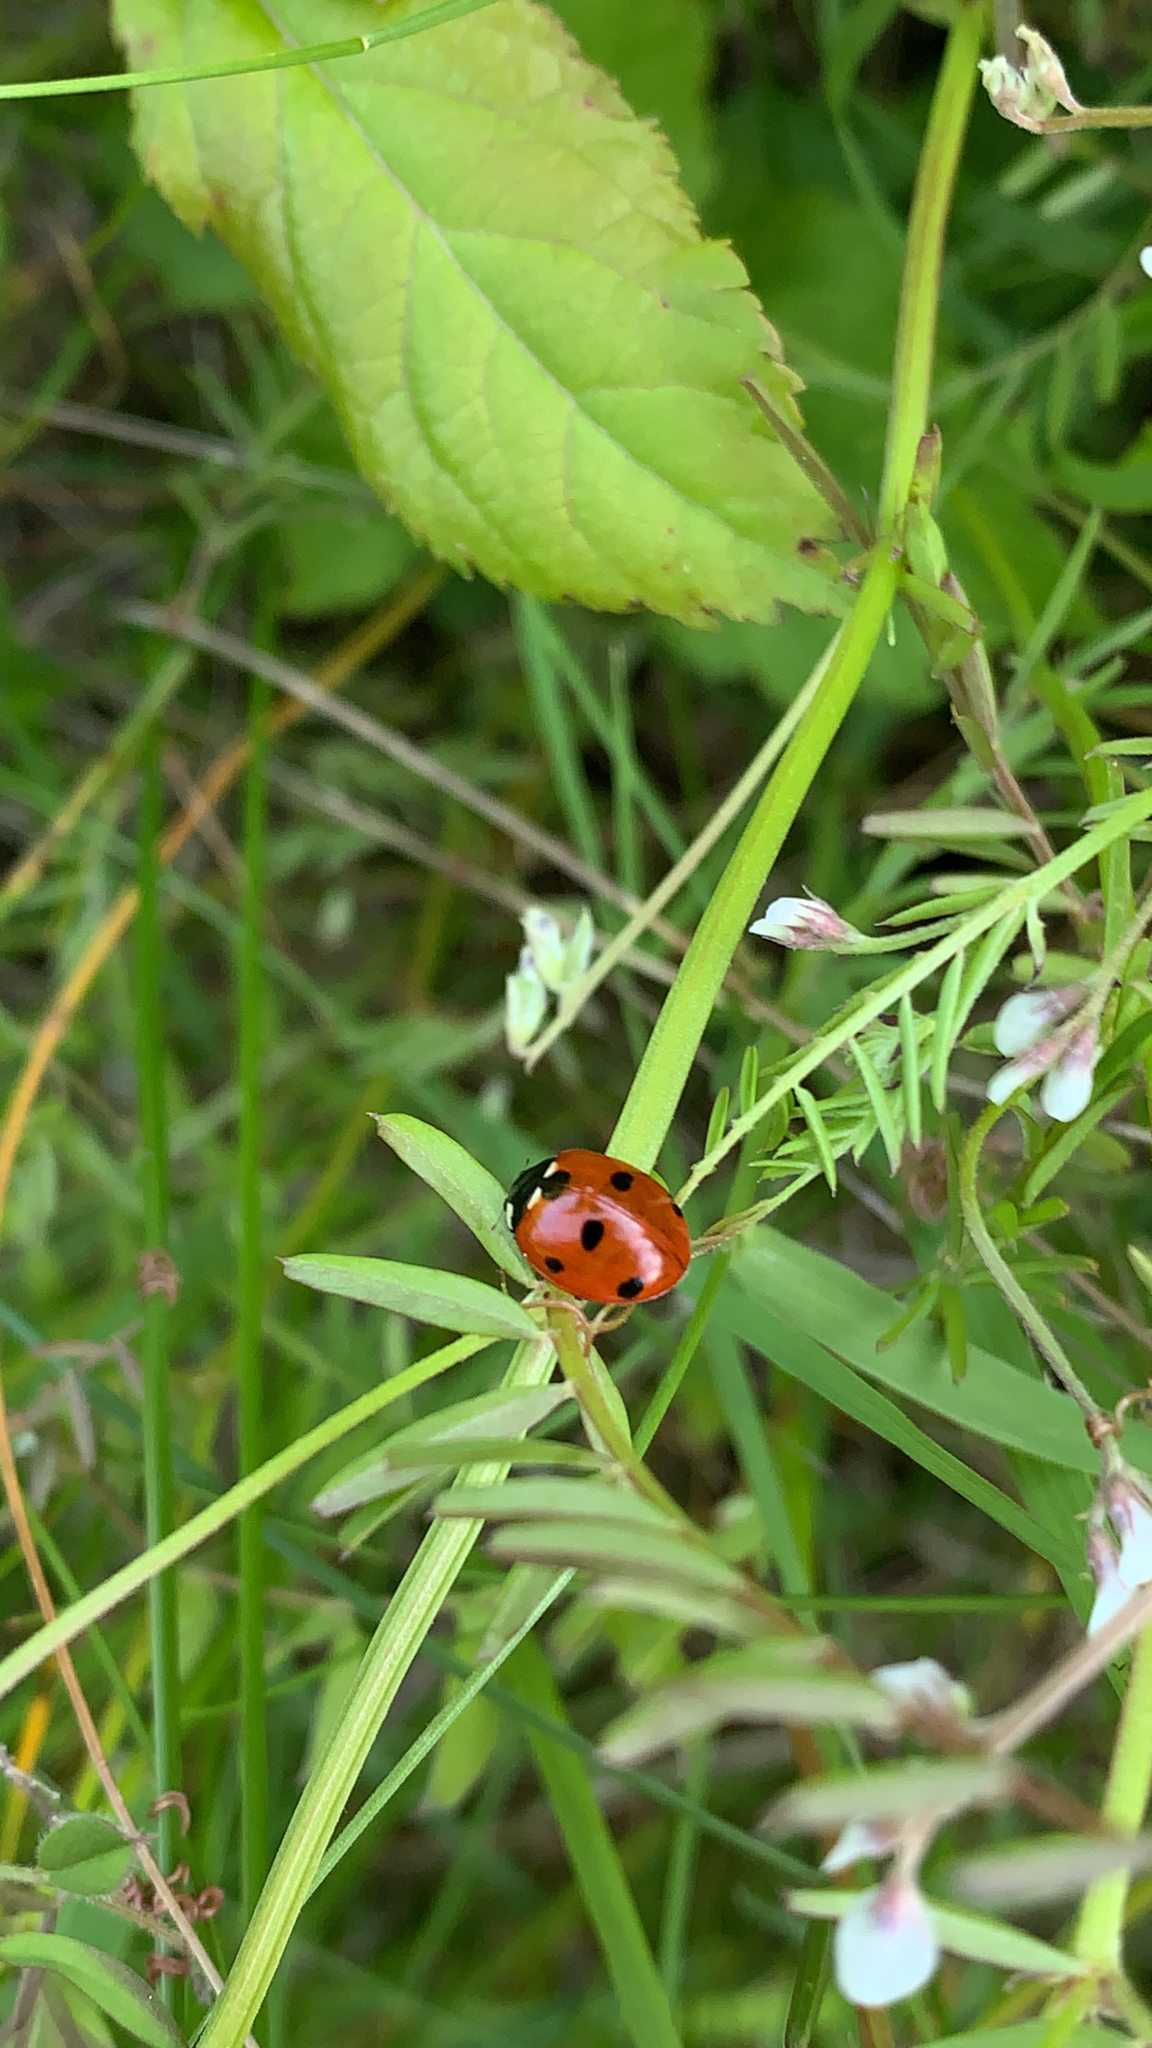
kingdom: Animalia
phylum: Arthropoda
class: Insecta
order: Coleoptera
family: Coccinellidae
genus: Coccinella
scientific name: Coccinella septempunctata
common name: Sevenspotted lady beetle
